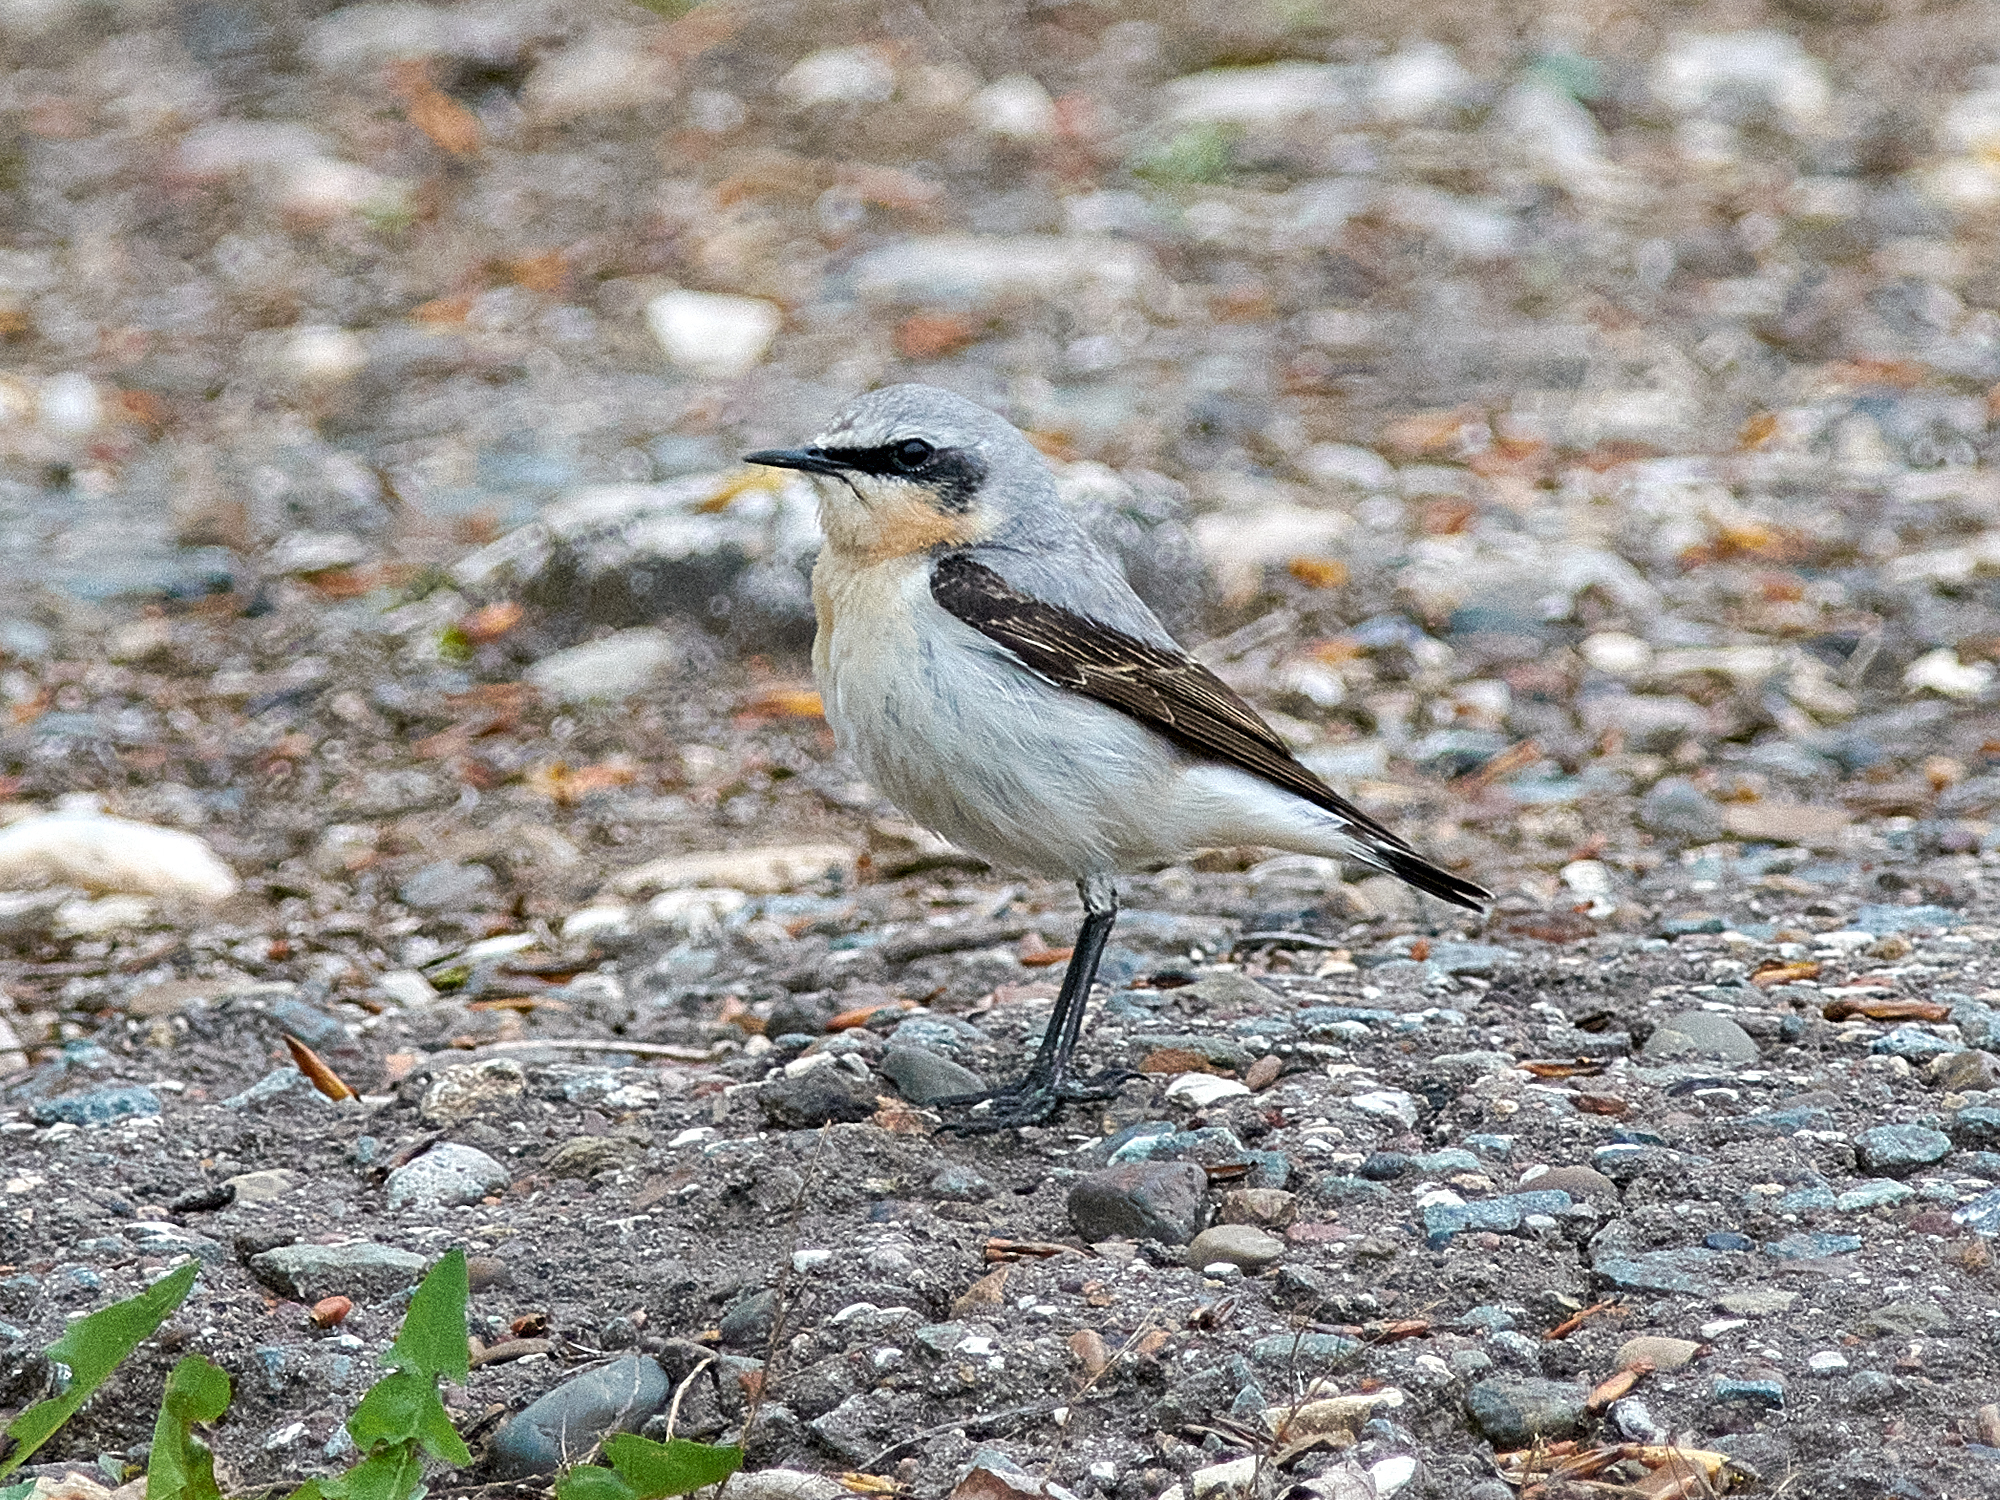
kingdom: Animalia
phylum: Chordata
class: Aves
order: Passeriformes
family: Muscicapidae
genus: Oenanthe
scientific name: Oenanthe oenanthe
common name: Northern wheatear
